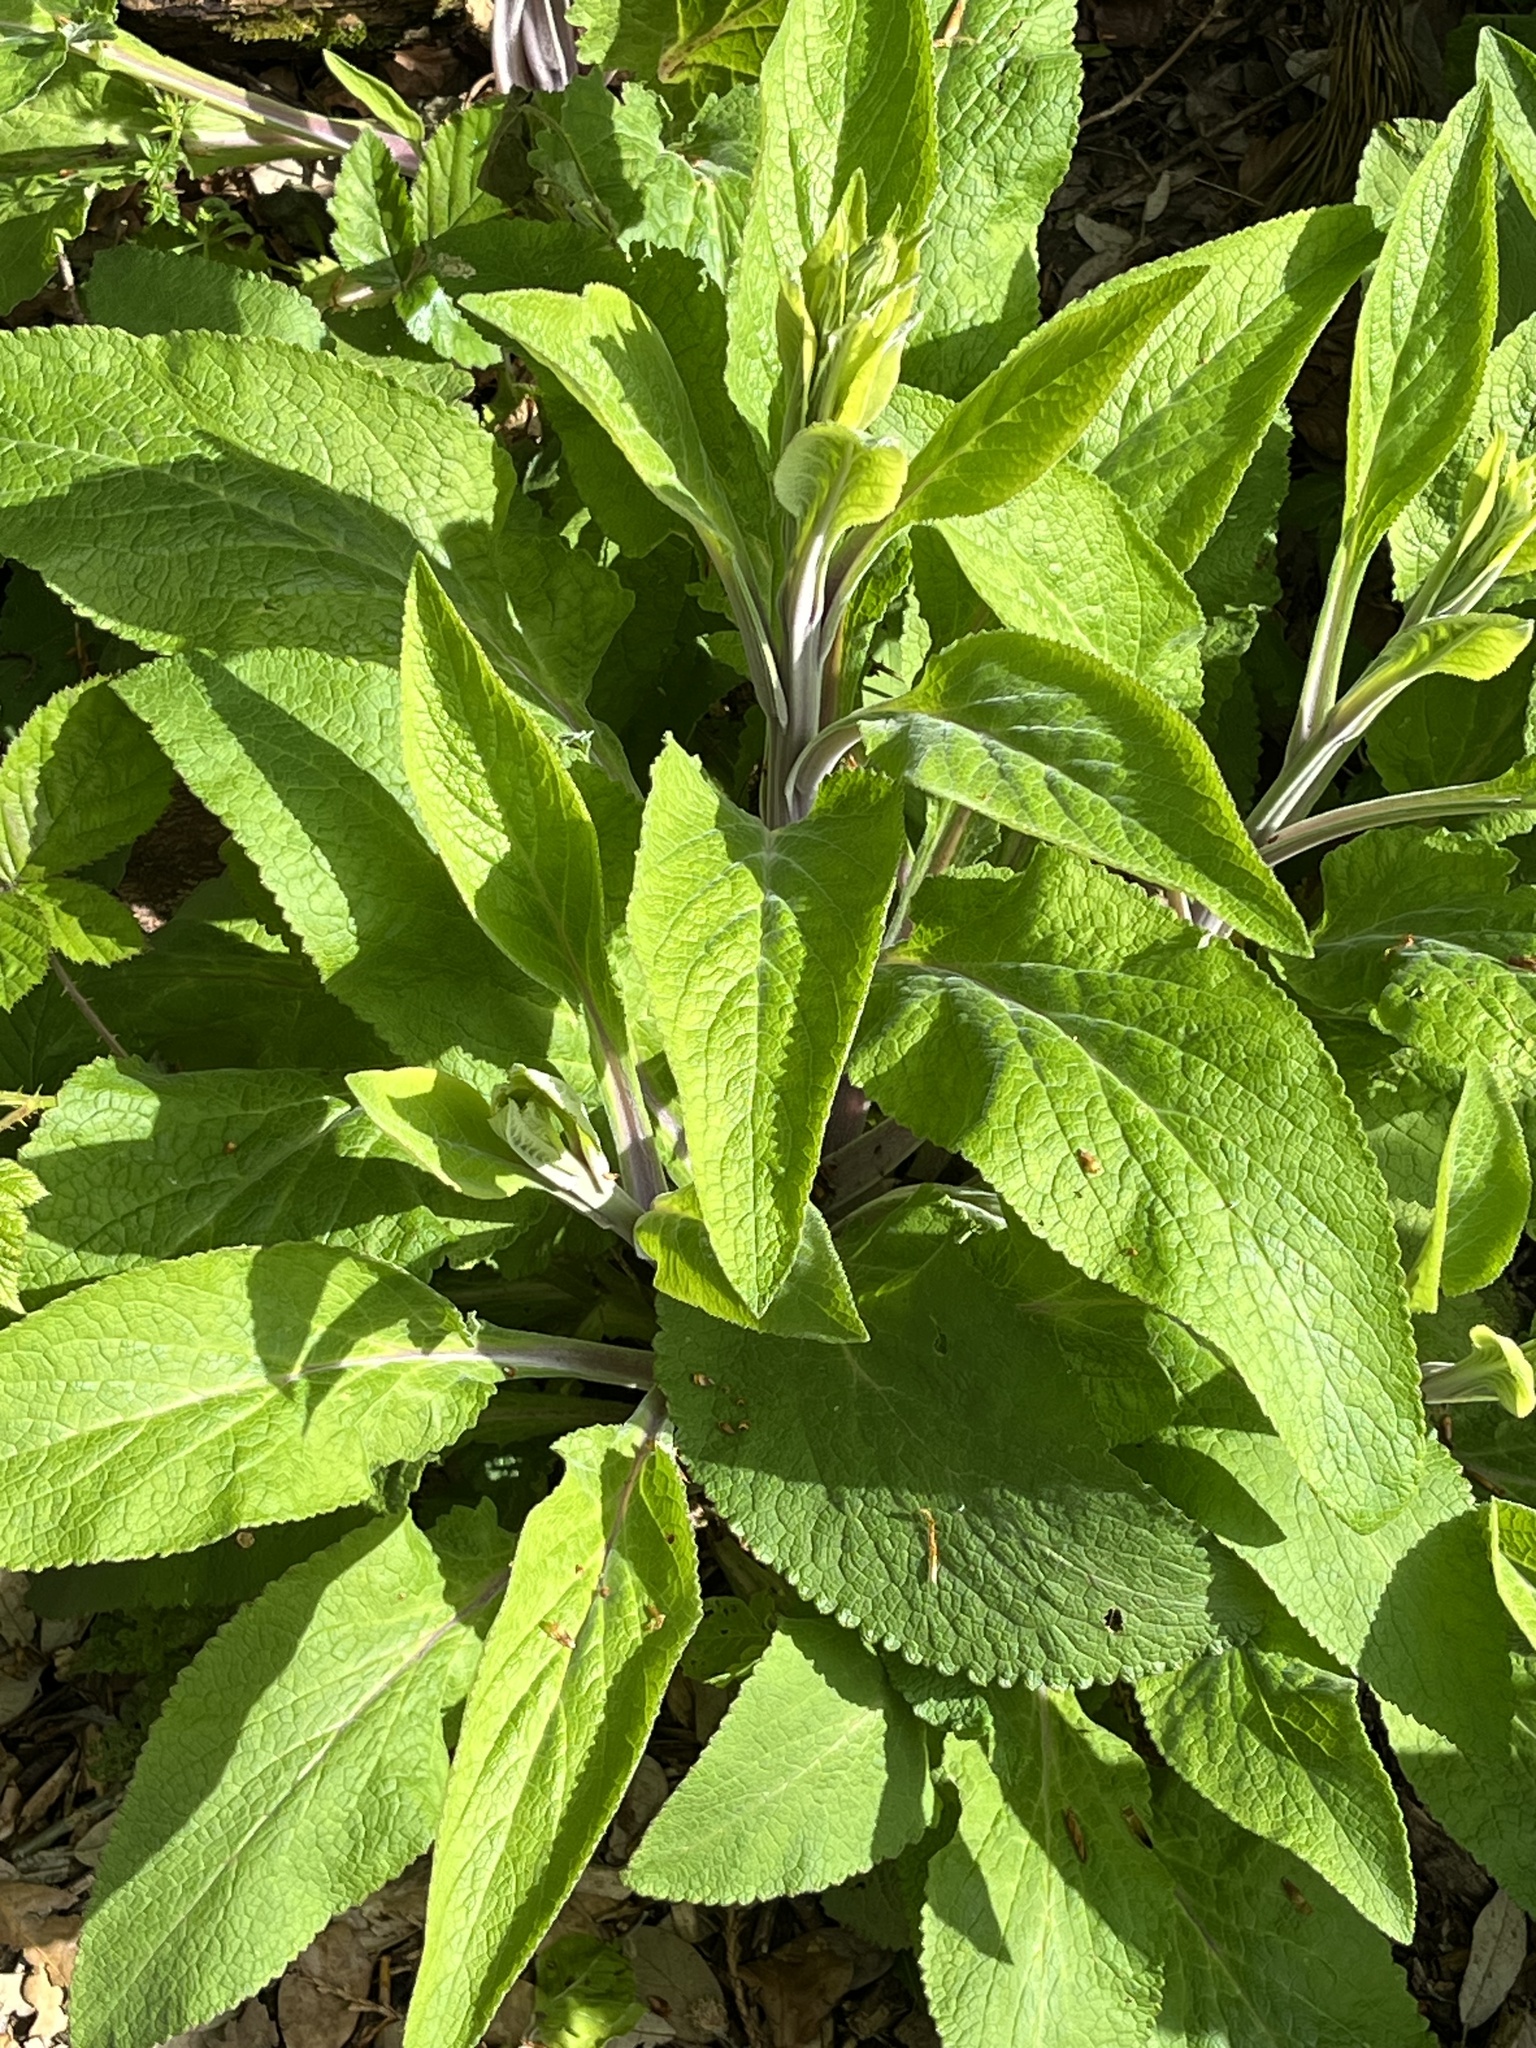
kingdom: Plantae
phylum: Tracheophyta
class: Magnoliopsida
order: Lamiales
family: Plantaginaceae
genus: Digitalis
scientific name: Digitalis purpurea
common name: Foxglove
